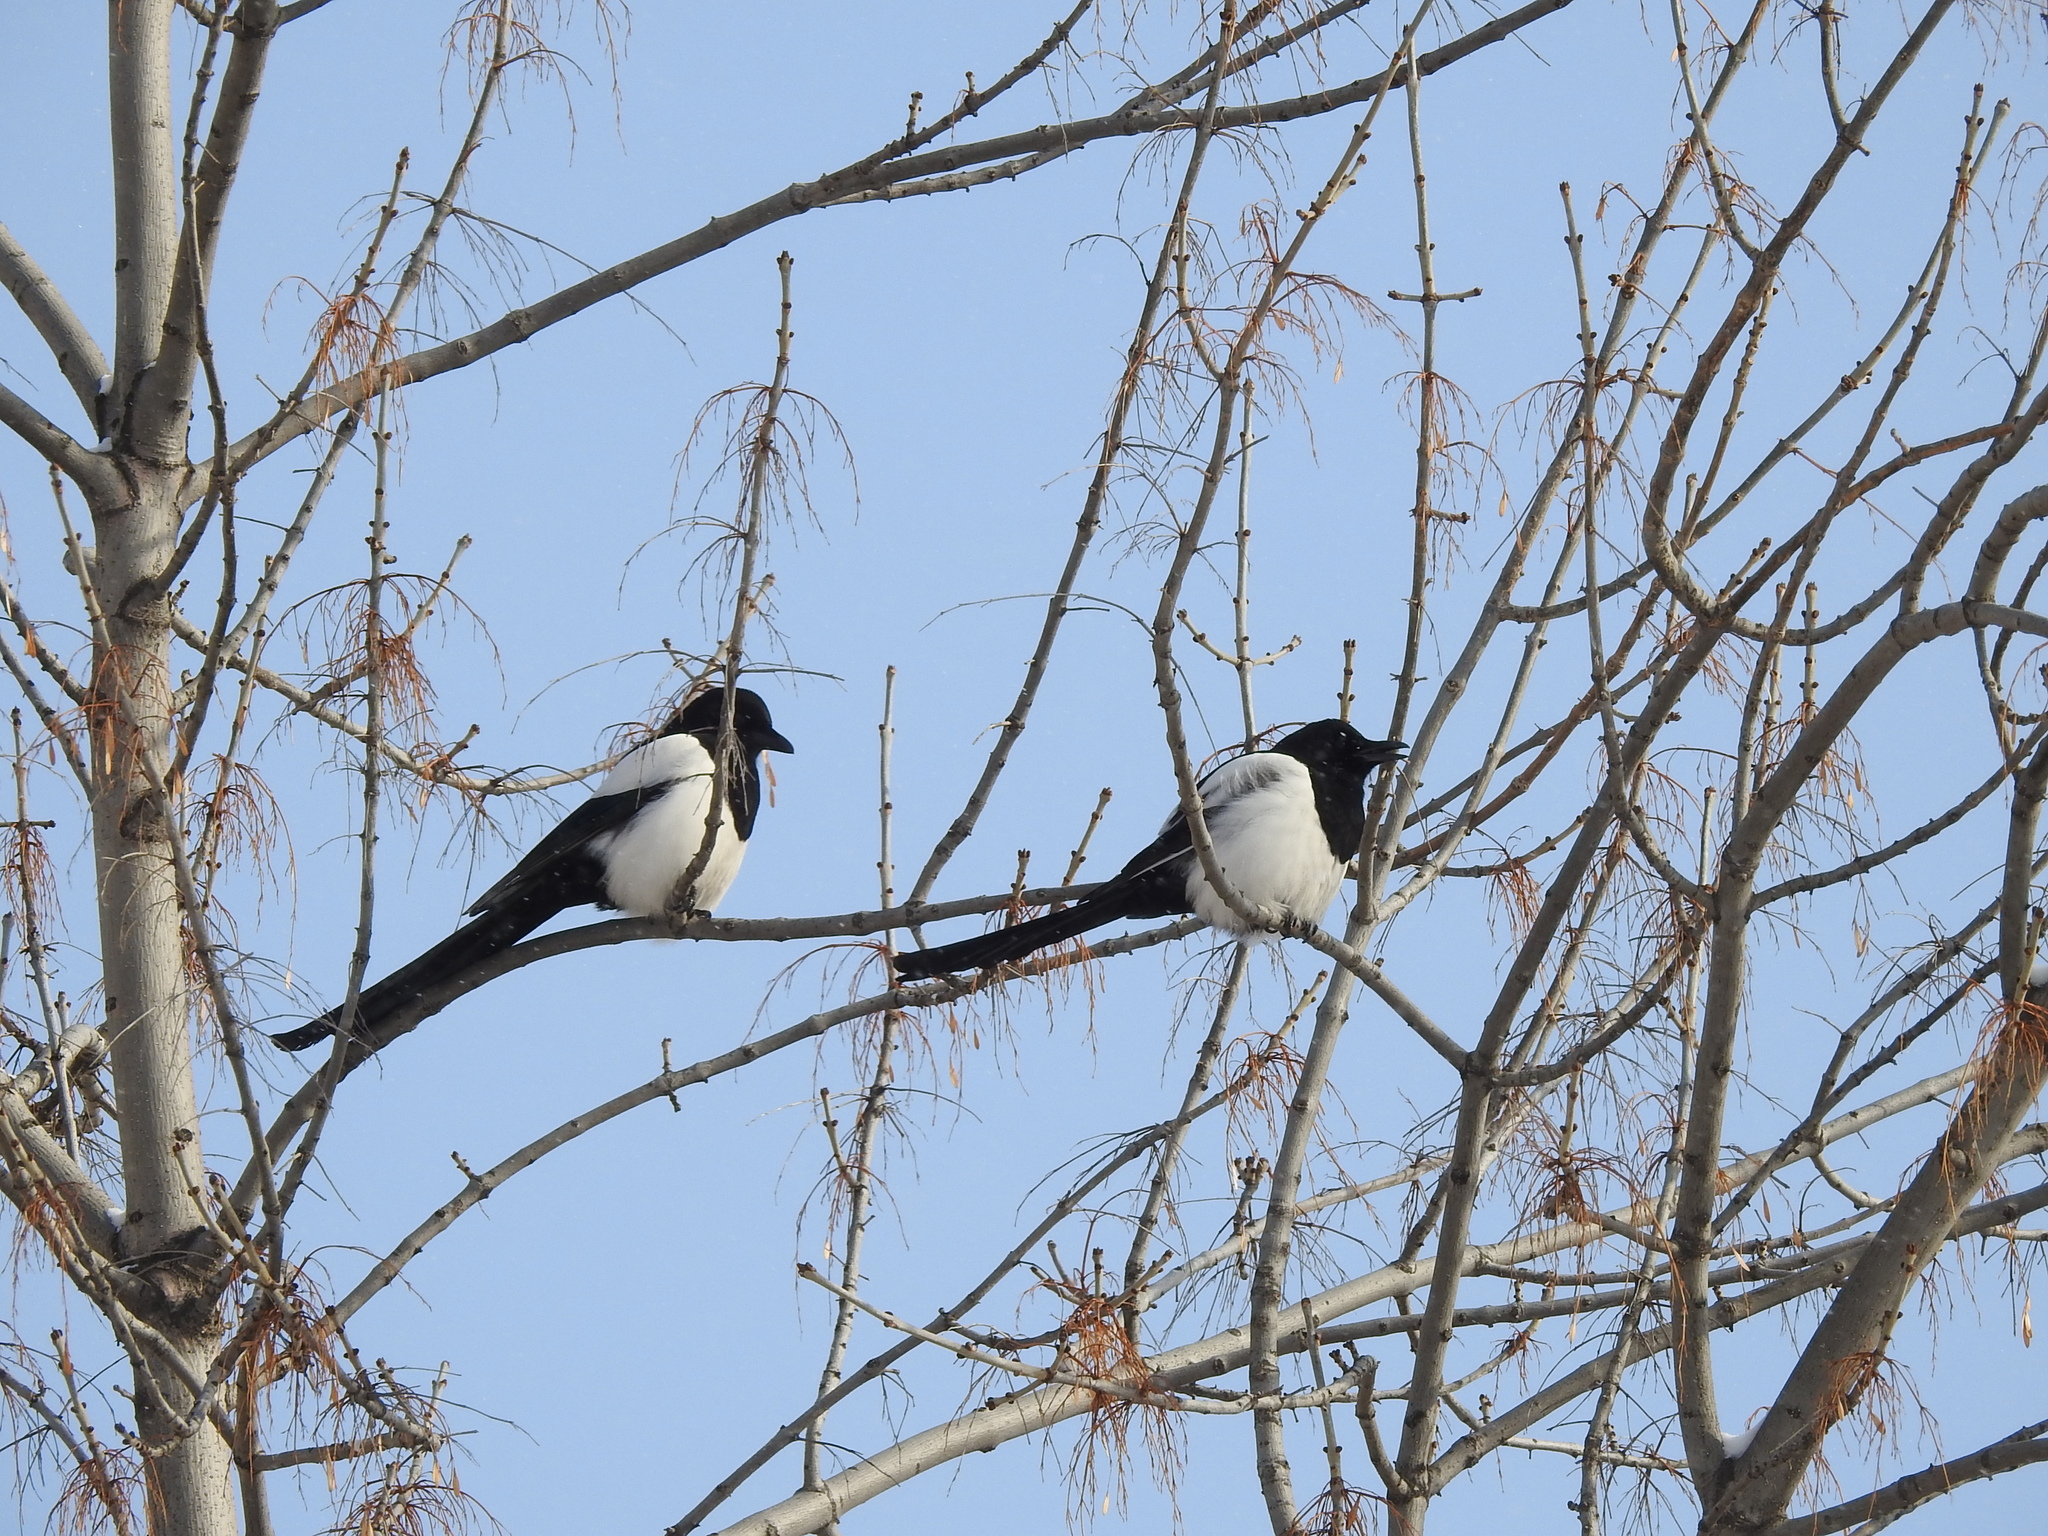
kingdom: Animalia
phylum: Chordata
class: Aves
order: Passeriformes
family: Corvidae
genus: Pica
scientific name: Pica pica
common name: Eurasian magpie
